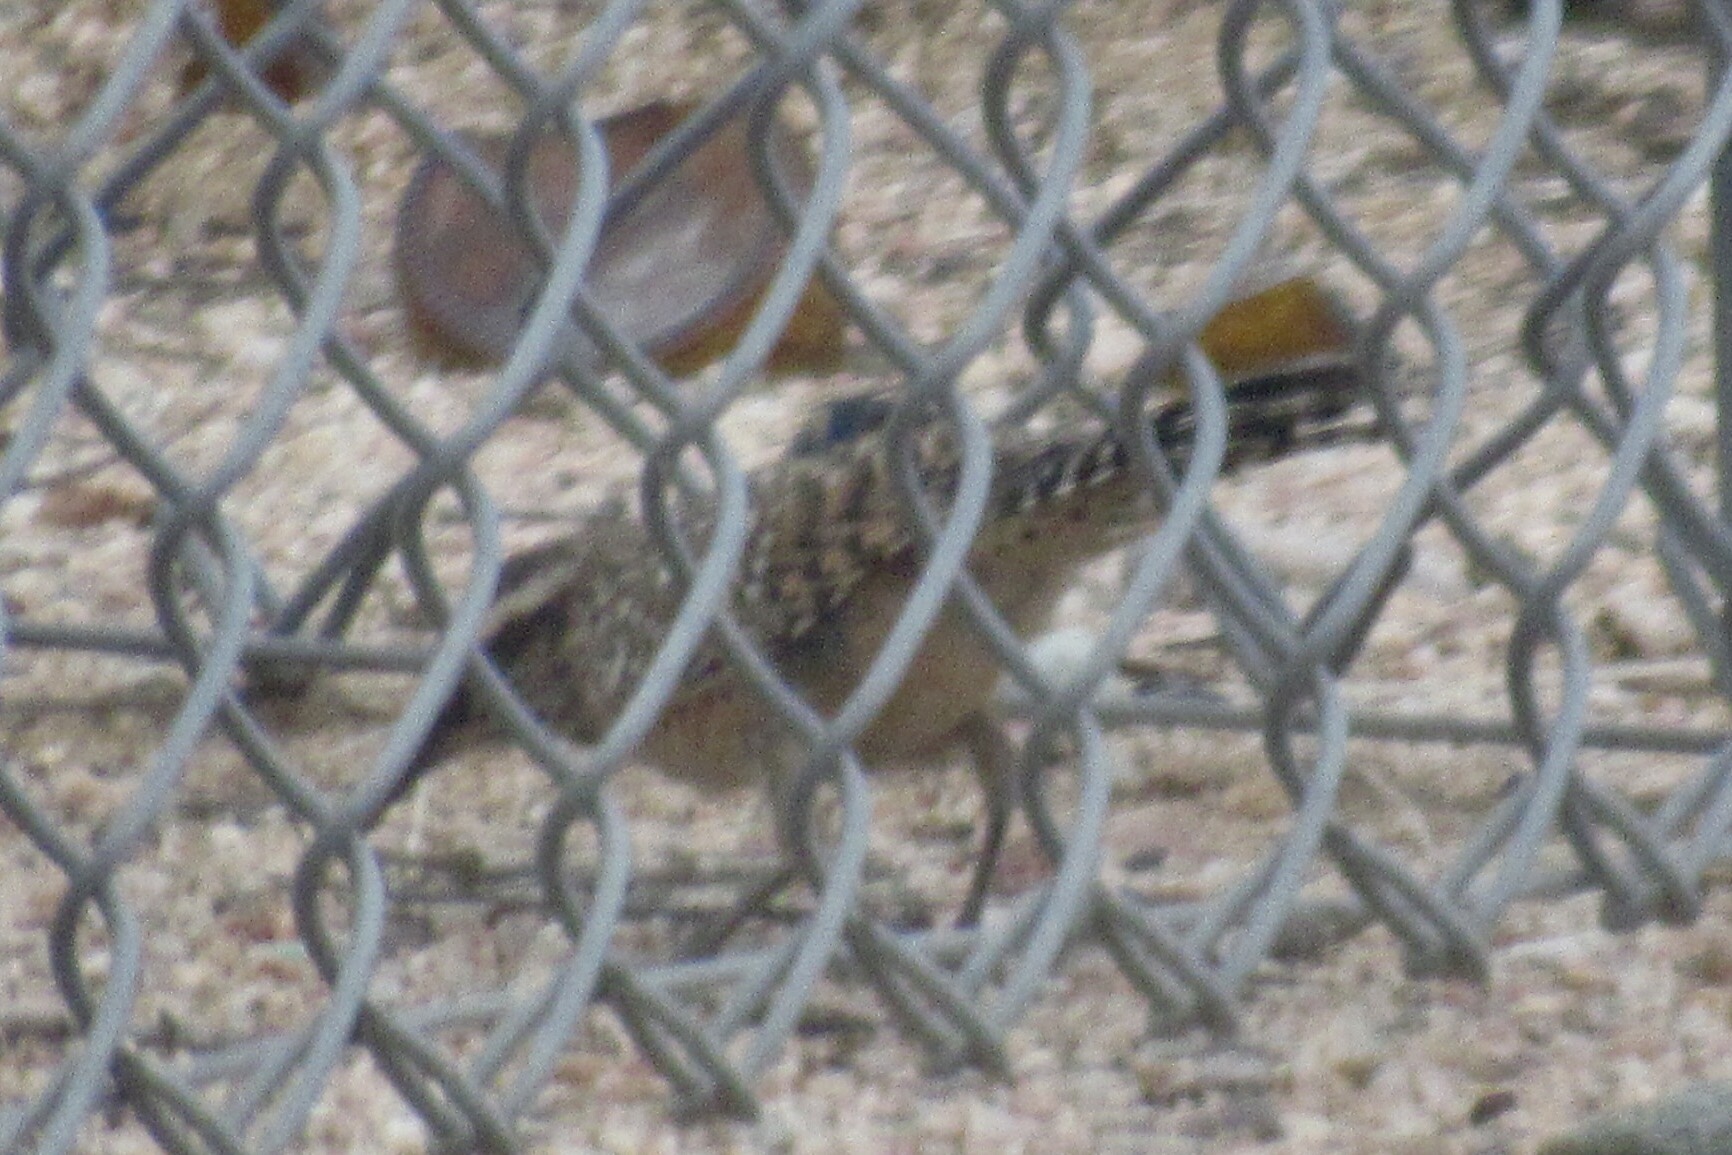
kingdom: Animalia
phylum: Chordata
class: Aves
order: Passeriformes
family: Troglodytidae
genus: Campylorhynchus
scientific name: Campylorhynchus brunneicapillus
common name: Cactus wren
